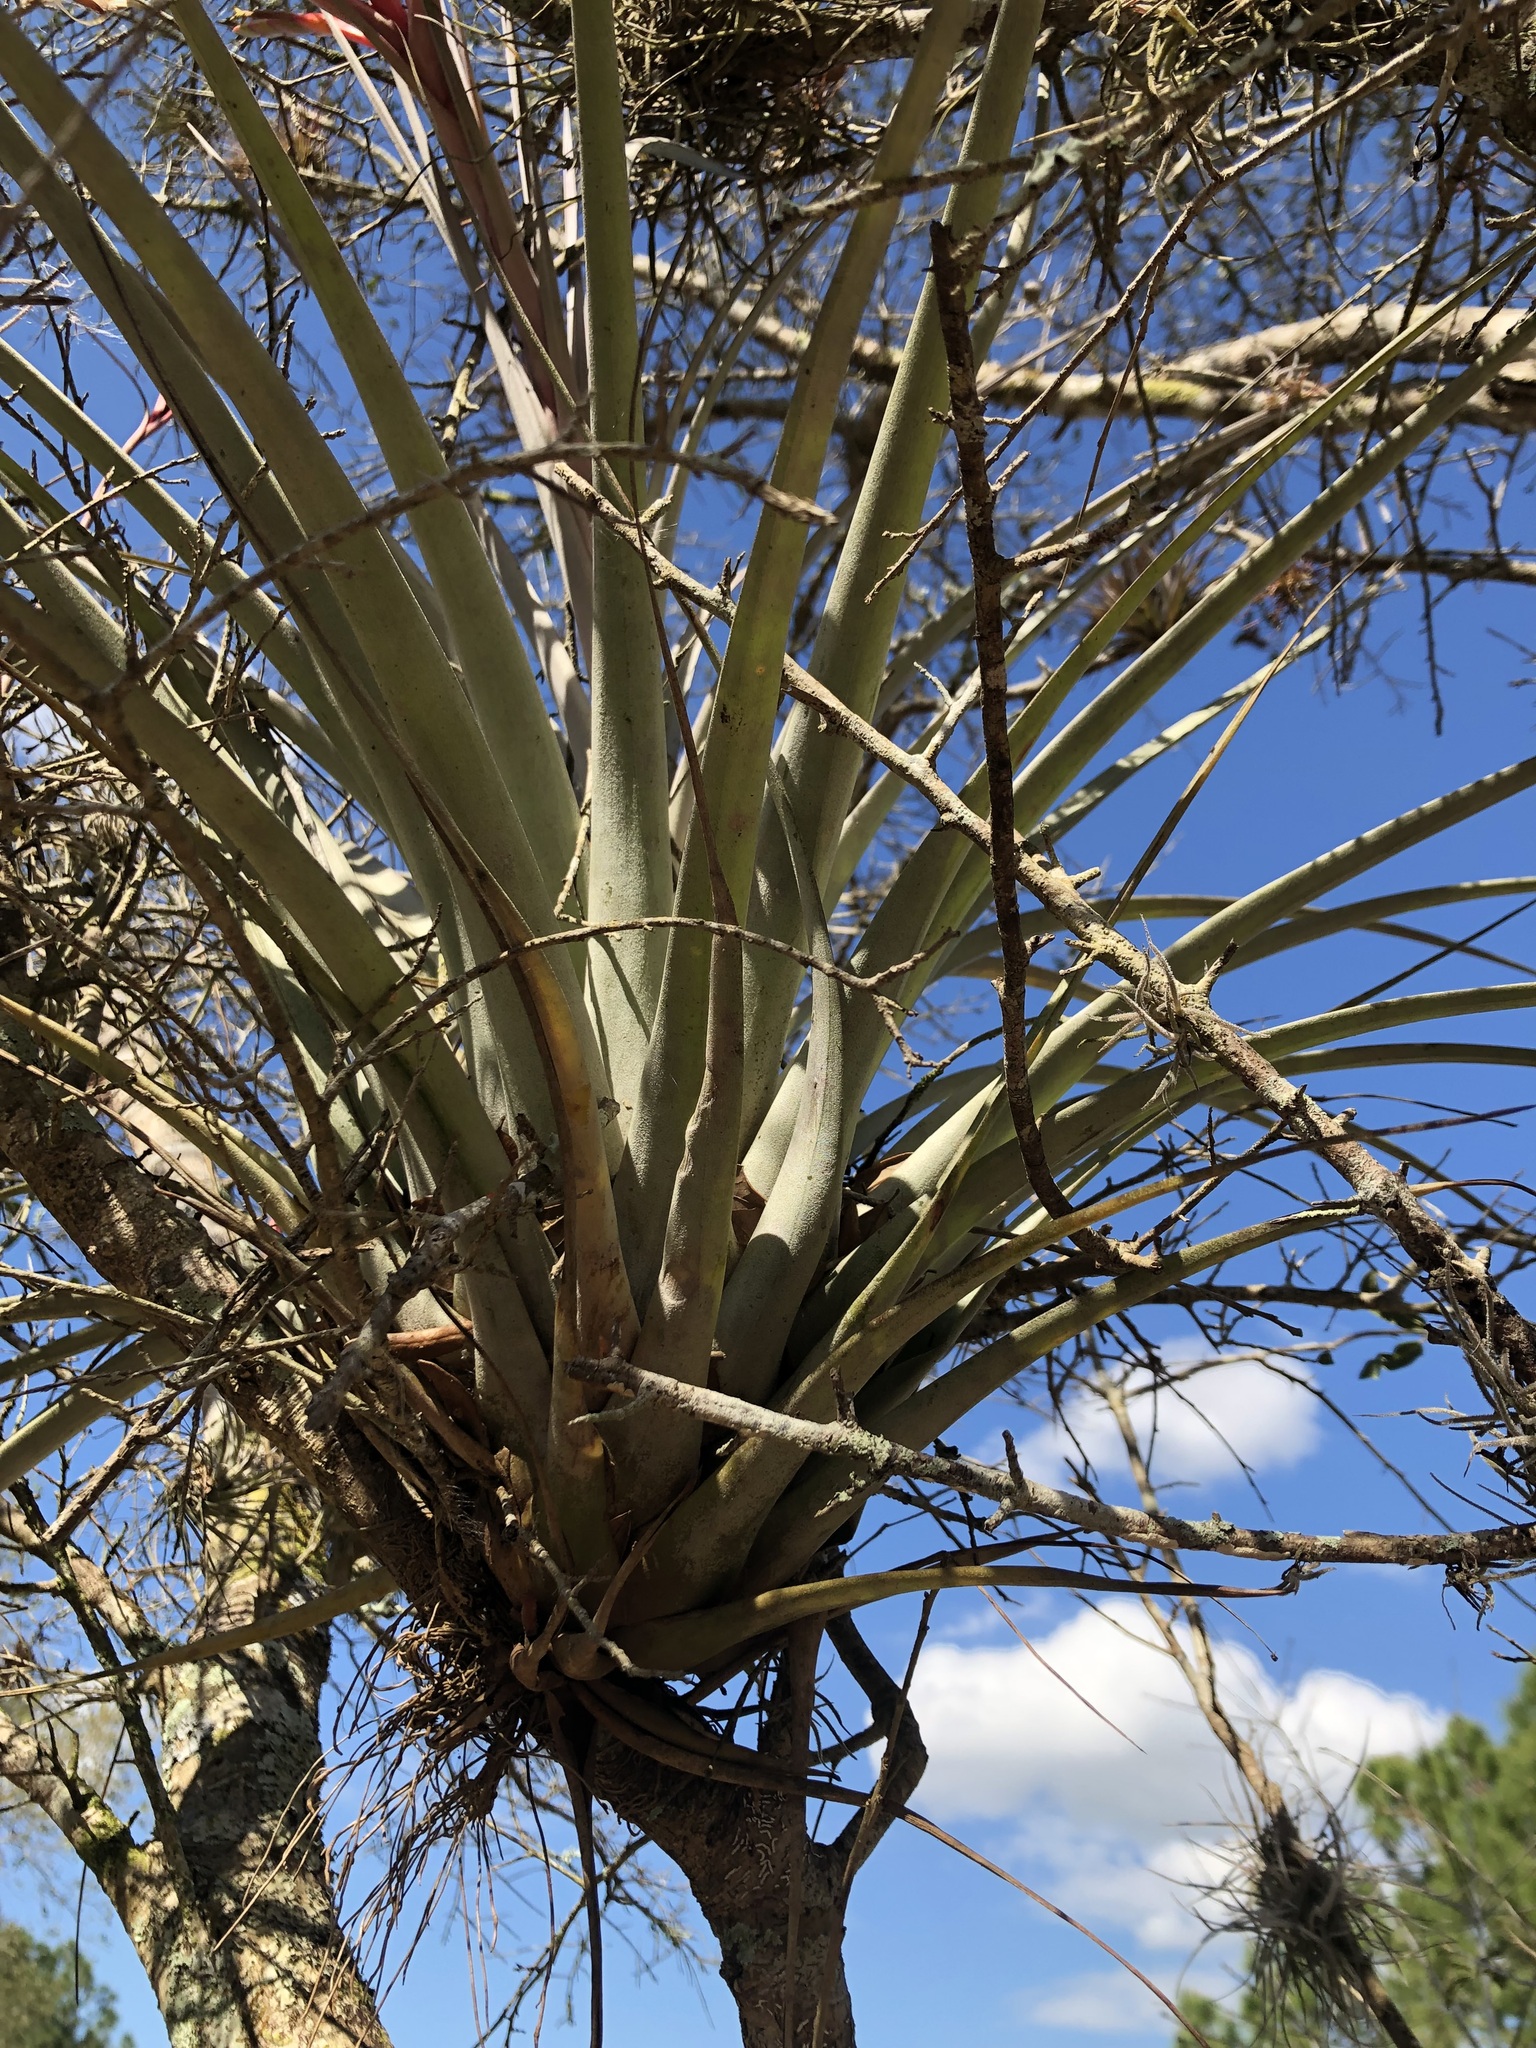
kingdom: Plantae
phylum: Tracheophyta
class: Liliopsida
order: Poales
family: Bromeliaceae
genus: Tillandsia
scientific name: Tillandsia fasciculata
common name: Giant airplant
